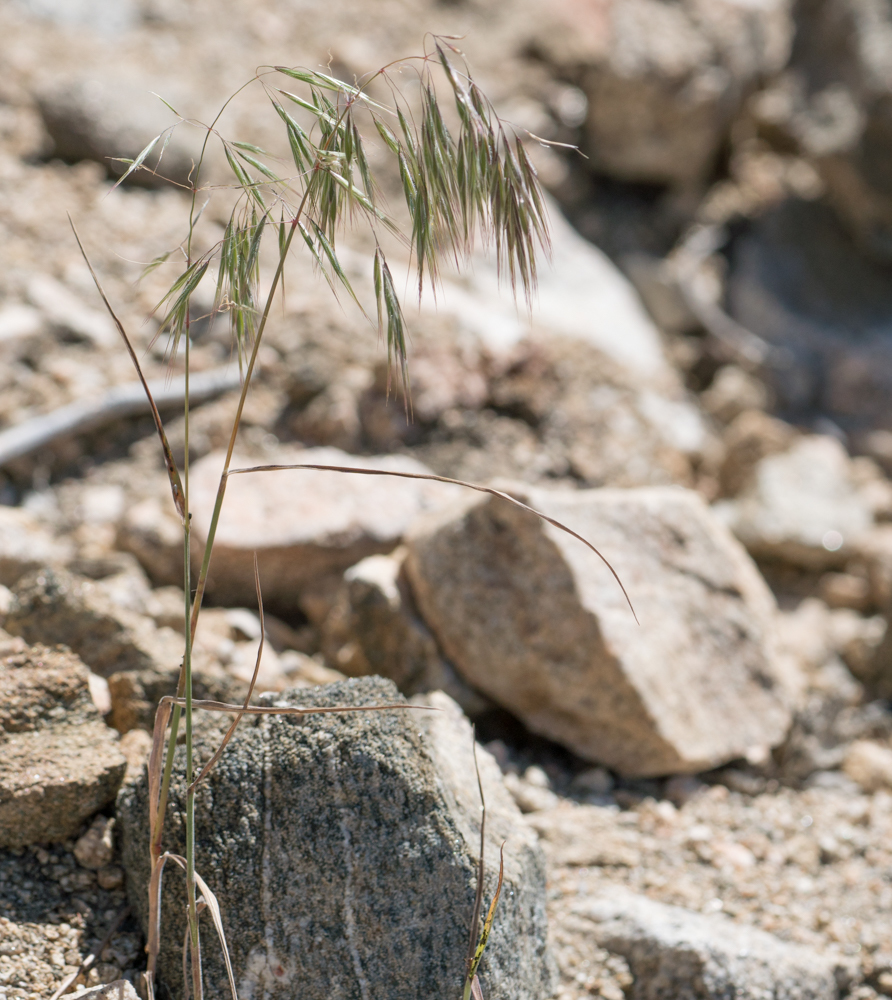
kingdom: Plantae
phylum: Tracheophyta
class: Liliopsida
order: Poales
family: Poaceae
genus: Bromus
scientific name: Bromus tectorum
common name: Cheatgrass
